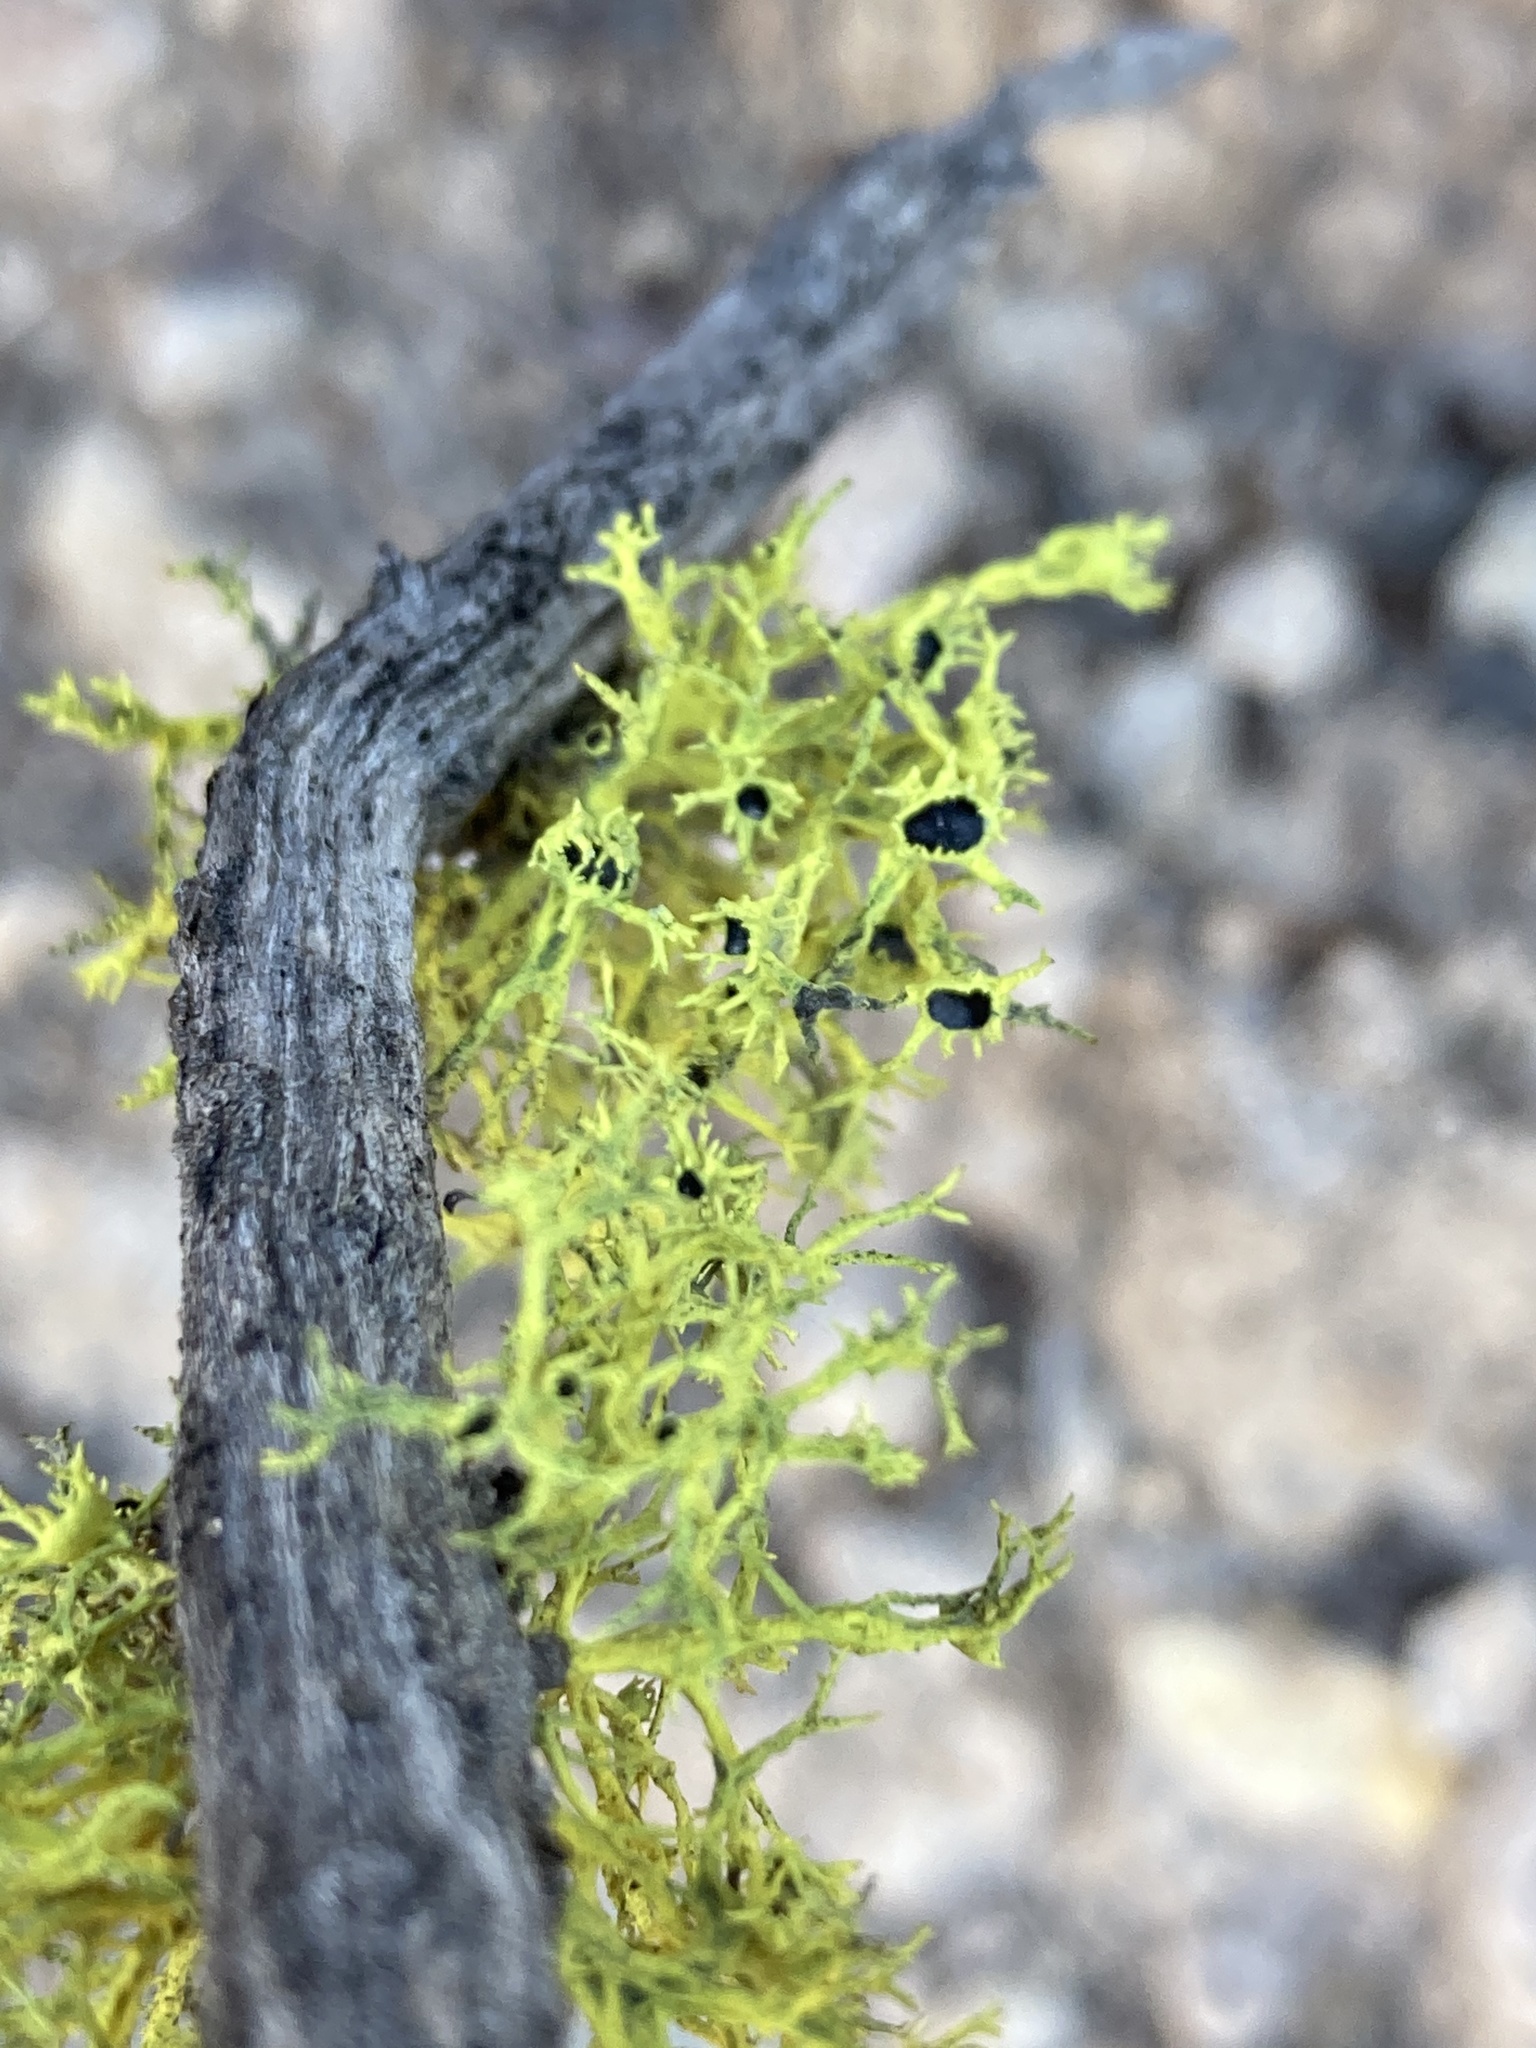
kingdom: Fungi
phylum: Ascomycota
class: Lecanoromycetes
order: Lecanorales
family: Parmeliaceae
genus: Letharia
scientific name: Letharia columbiana
